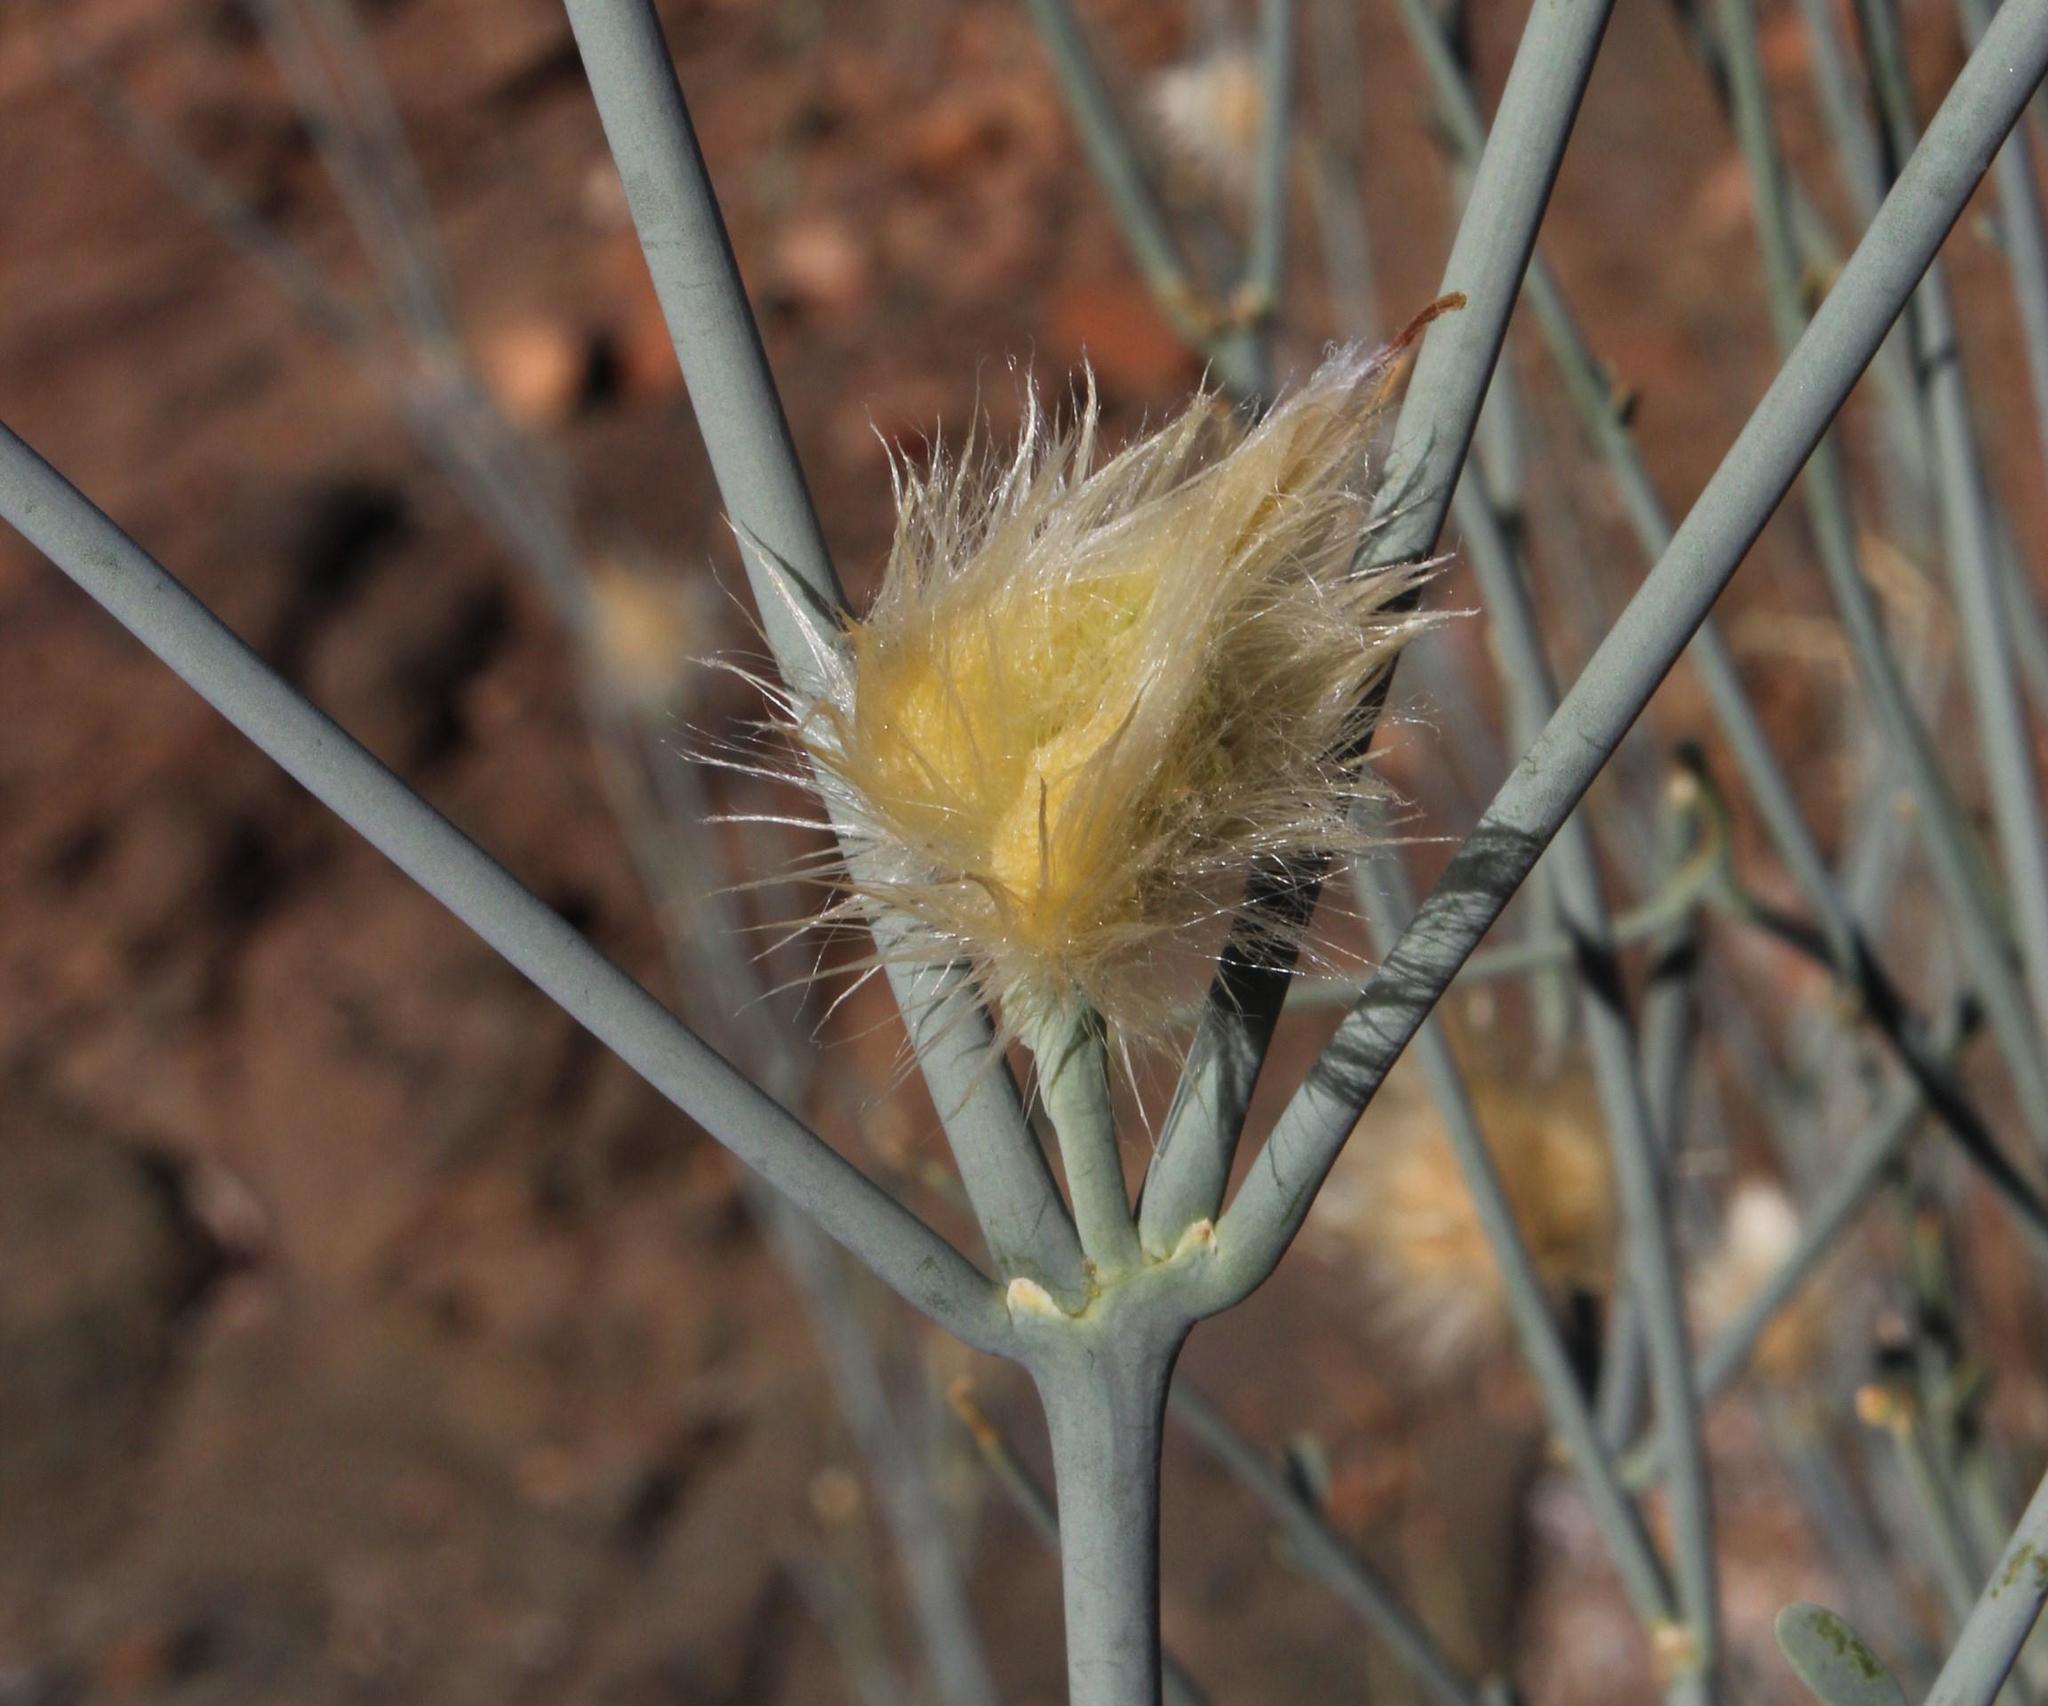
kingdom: Plantae
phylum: Tracheophyta
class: Magnoliopsida
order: Zygophyllales
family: Zygophyllaceae
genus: Sisyndite
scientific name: Sisyndite spartea
